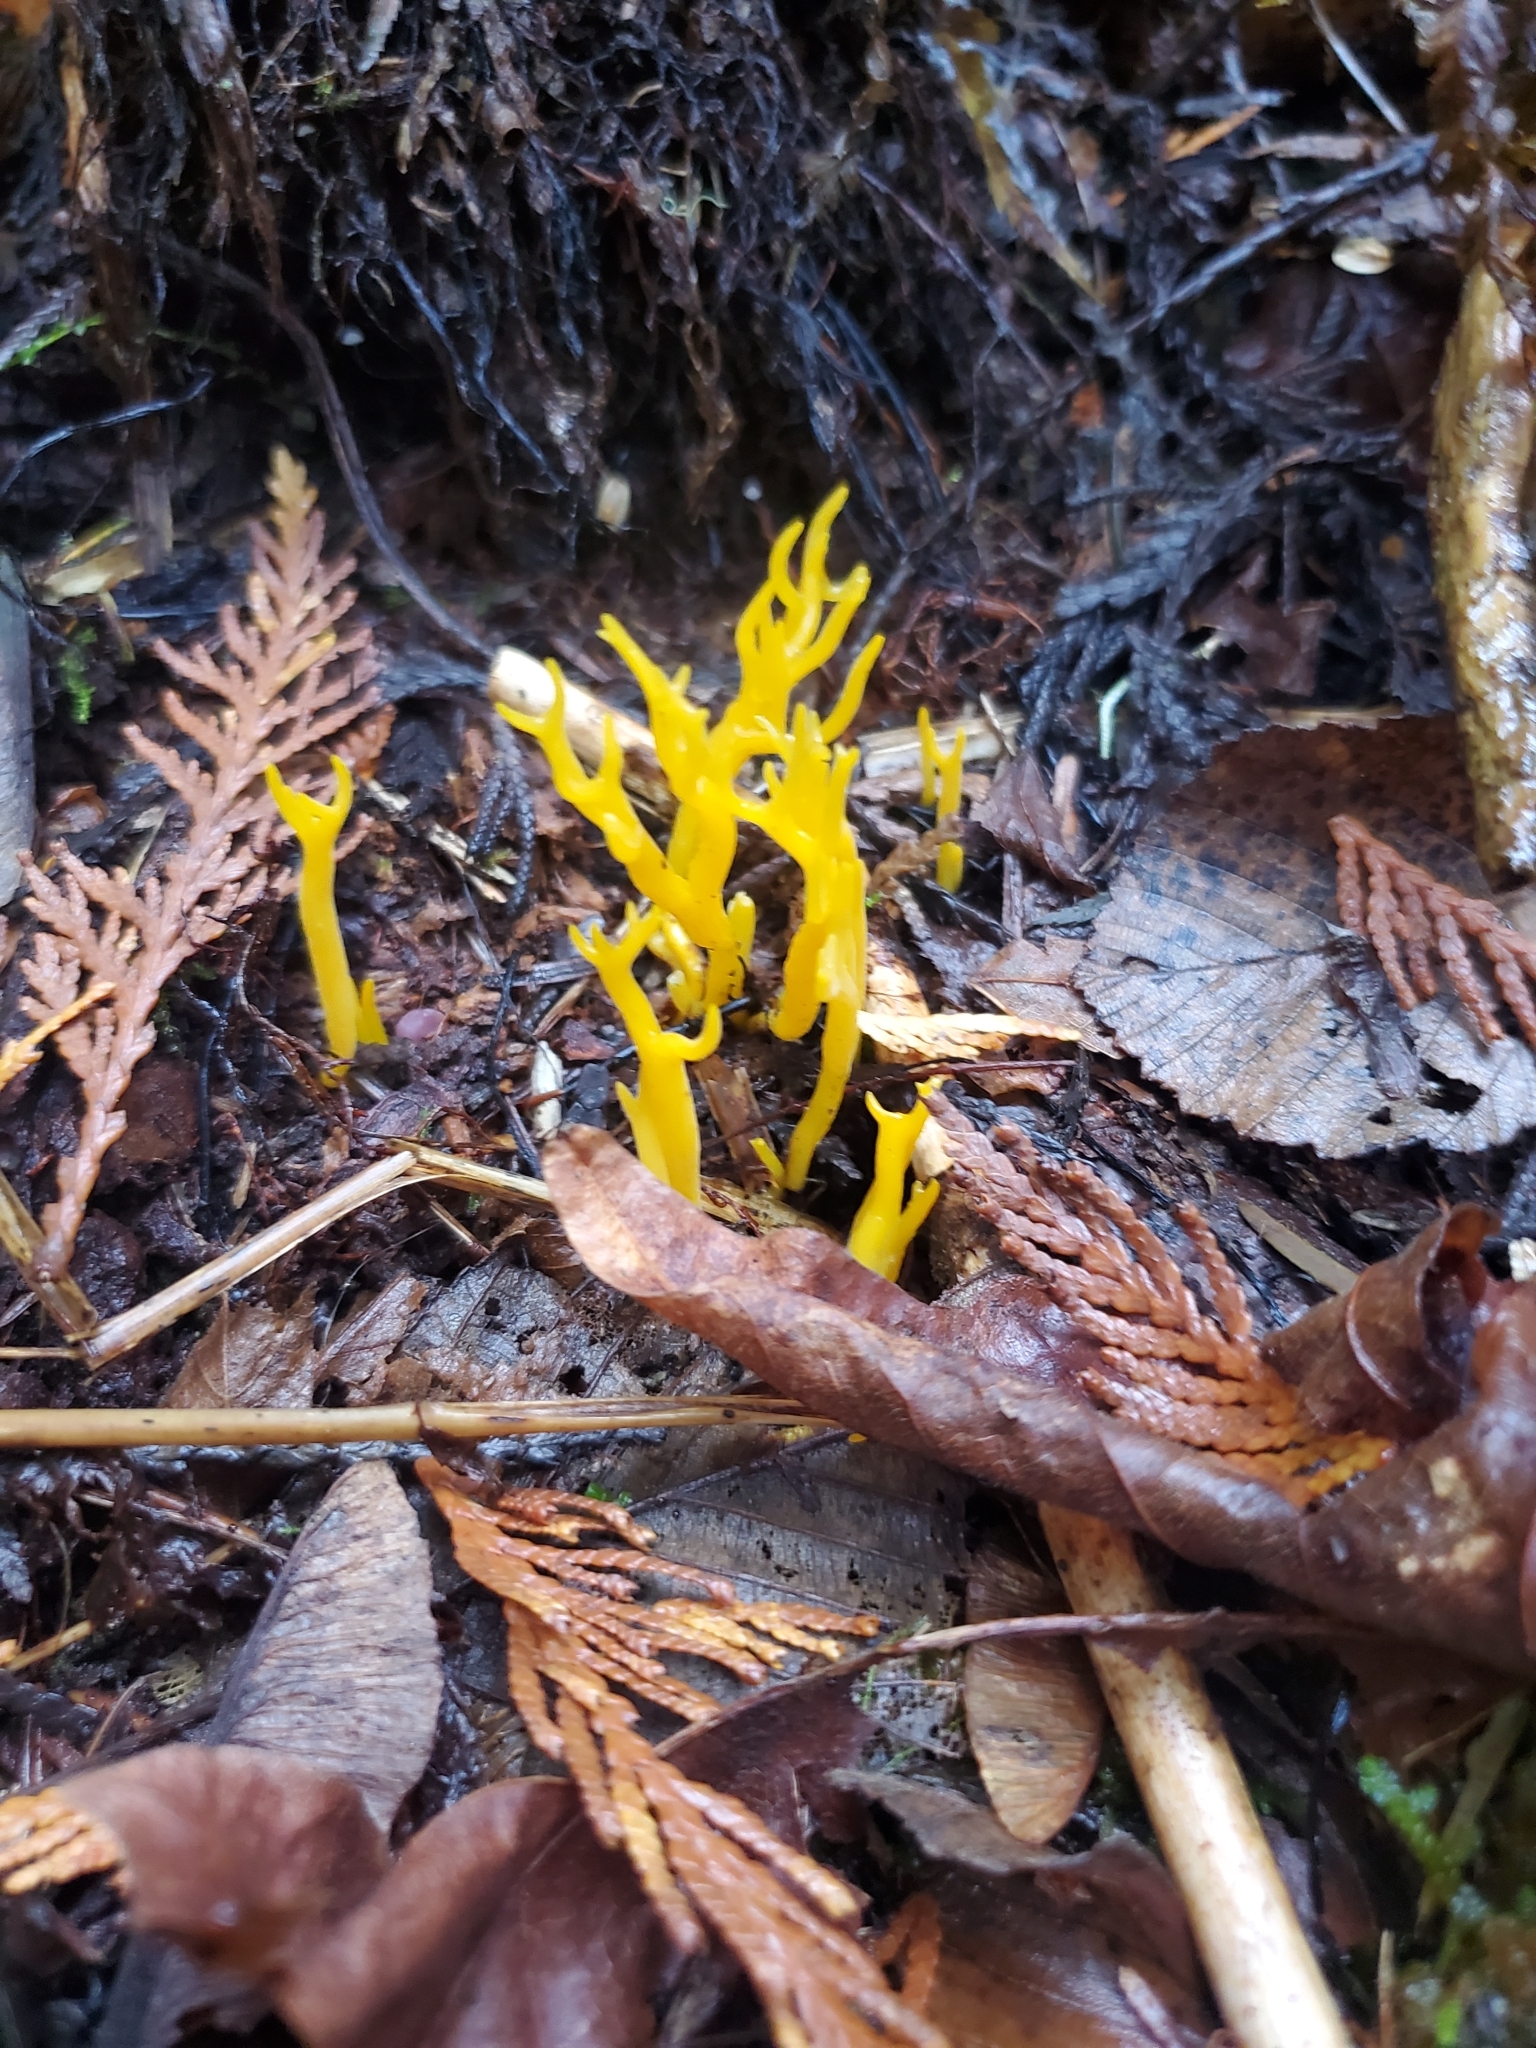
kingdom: Fungi
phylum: Basidiomycota
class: Dacrymycetes
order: Dacrymycetales
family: Dacrymycetaceae
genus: Calocera
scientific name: Calocera viscosa
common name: Yellow stagshorn
